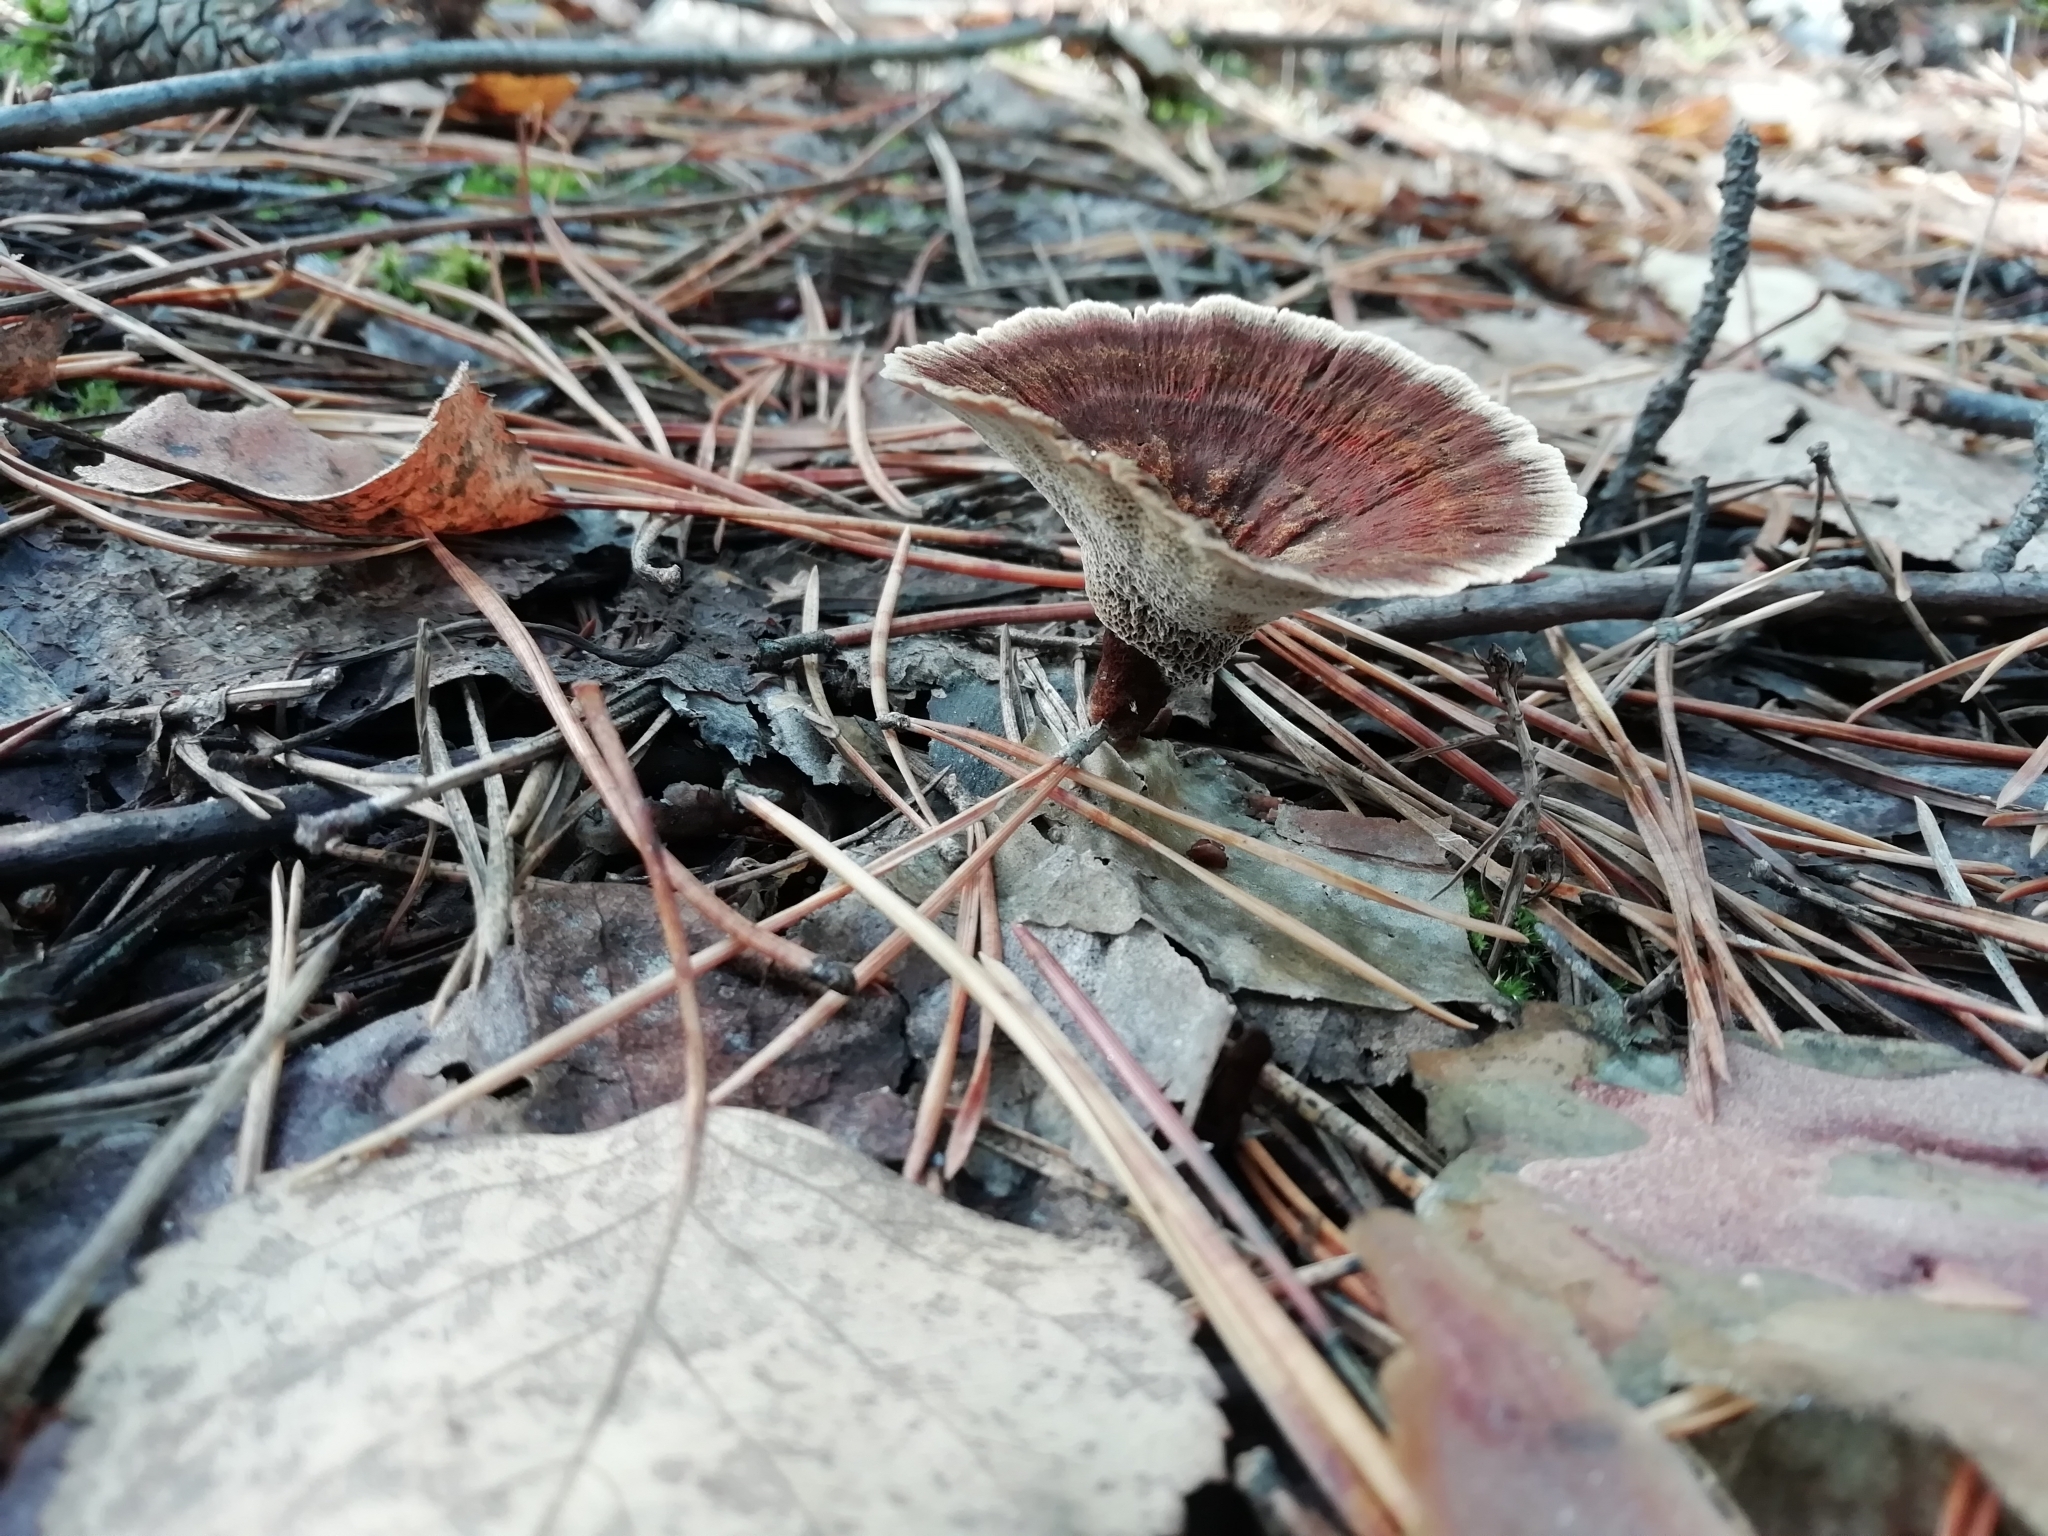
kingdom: Fungi
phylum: Basidiomycota
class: Agaricomycetes
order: Hymenochaetales
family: Hymenochaetaceae
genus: Coltricia
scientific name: Coltricia perennis
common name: Tiger's eye
